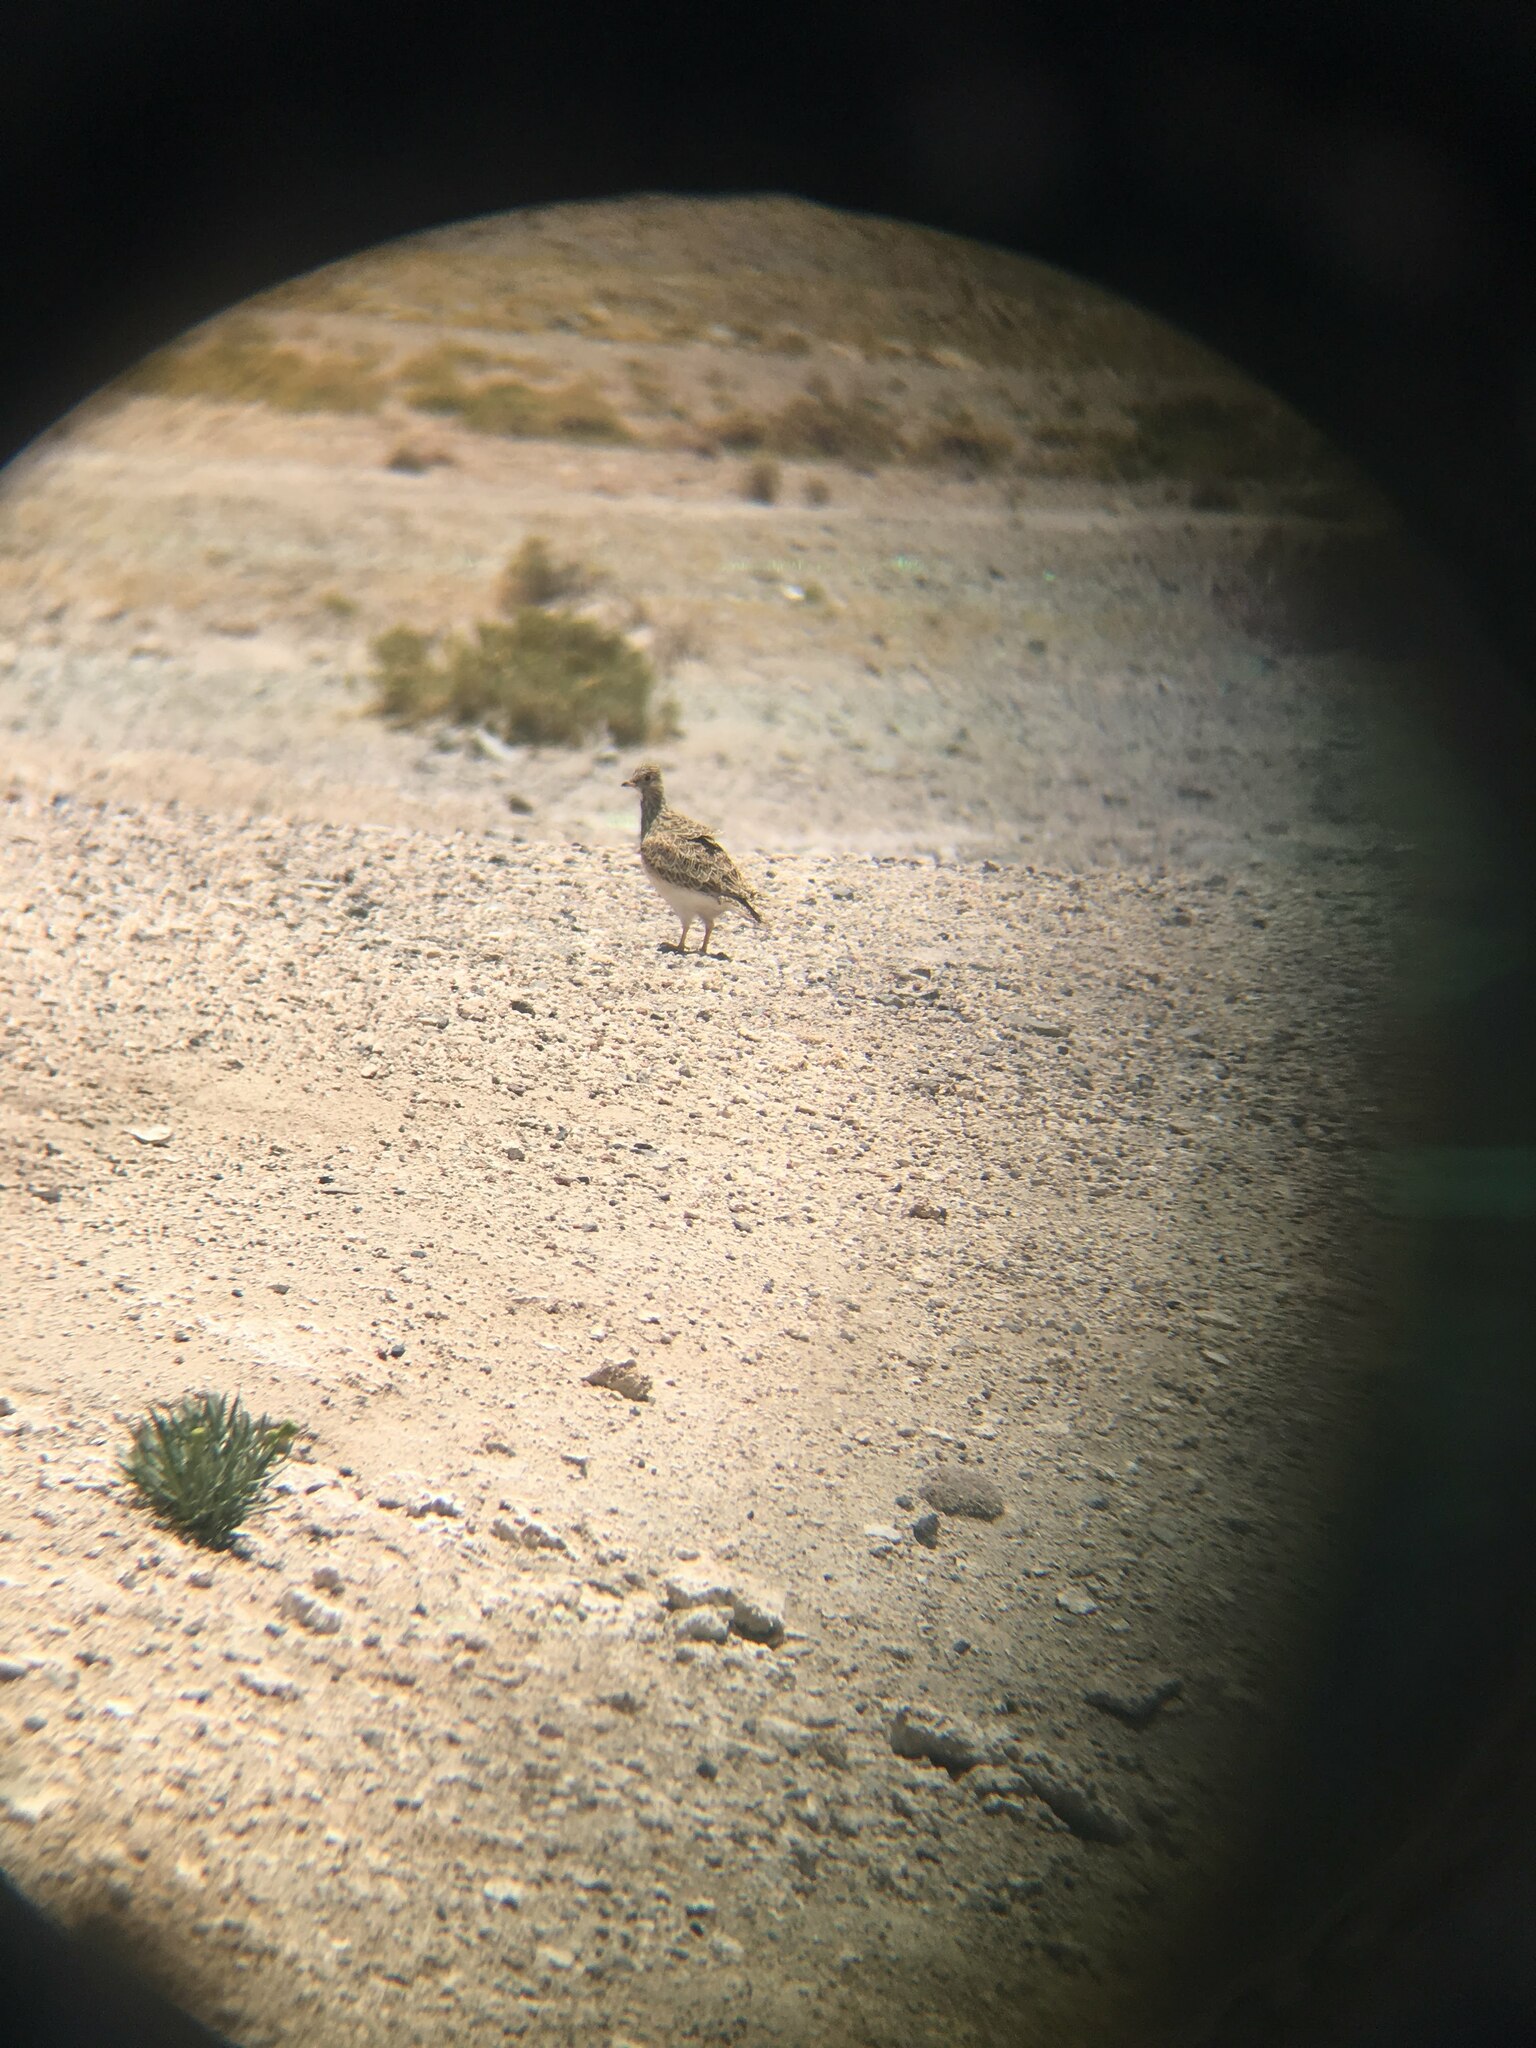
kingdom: Animalia
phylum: Chordata
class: Aves
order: Charadriiformes
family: Thinocoridae
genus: Thinocorus
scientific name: Thinocorus orbignyianus
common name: Grey-breasted seedsnipe
